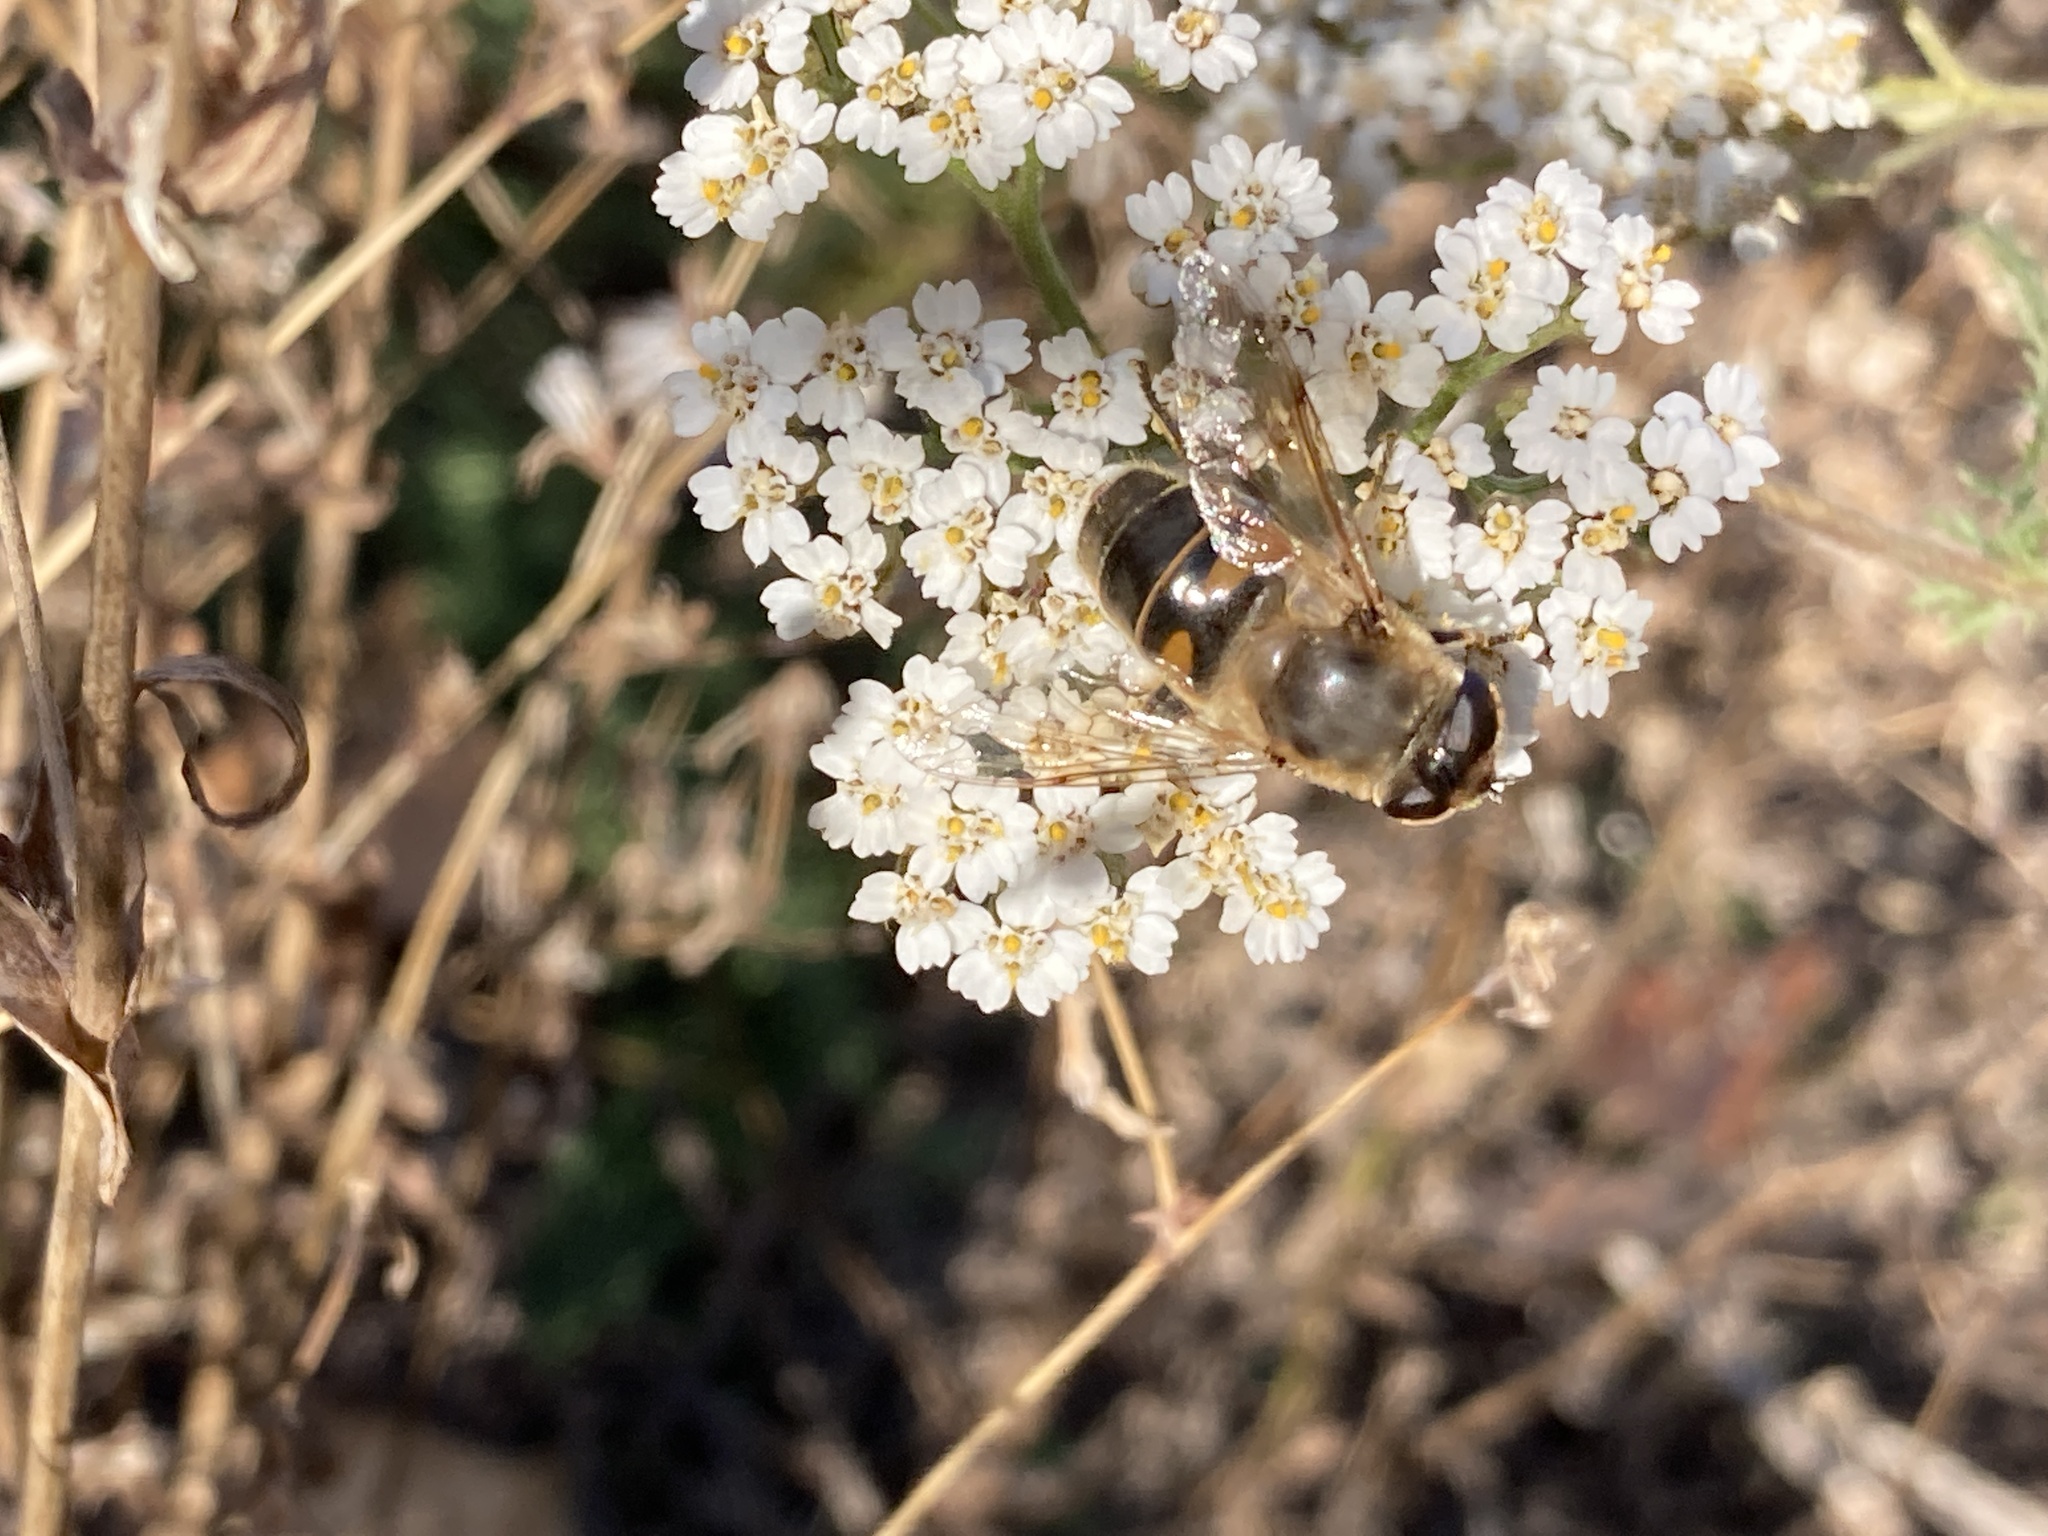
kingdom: Animalia
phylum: Arthropoda
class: Insecta
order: Diptera
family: Syrphidae
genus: Eristalis
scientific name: Eristalis tenax
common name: Drone fly
